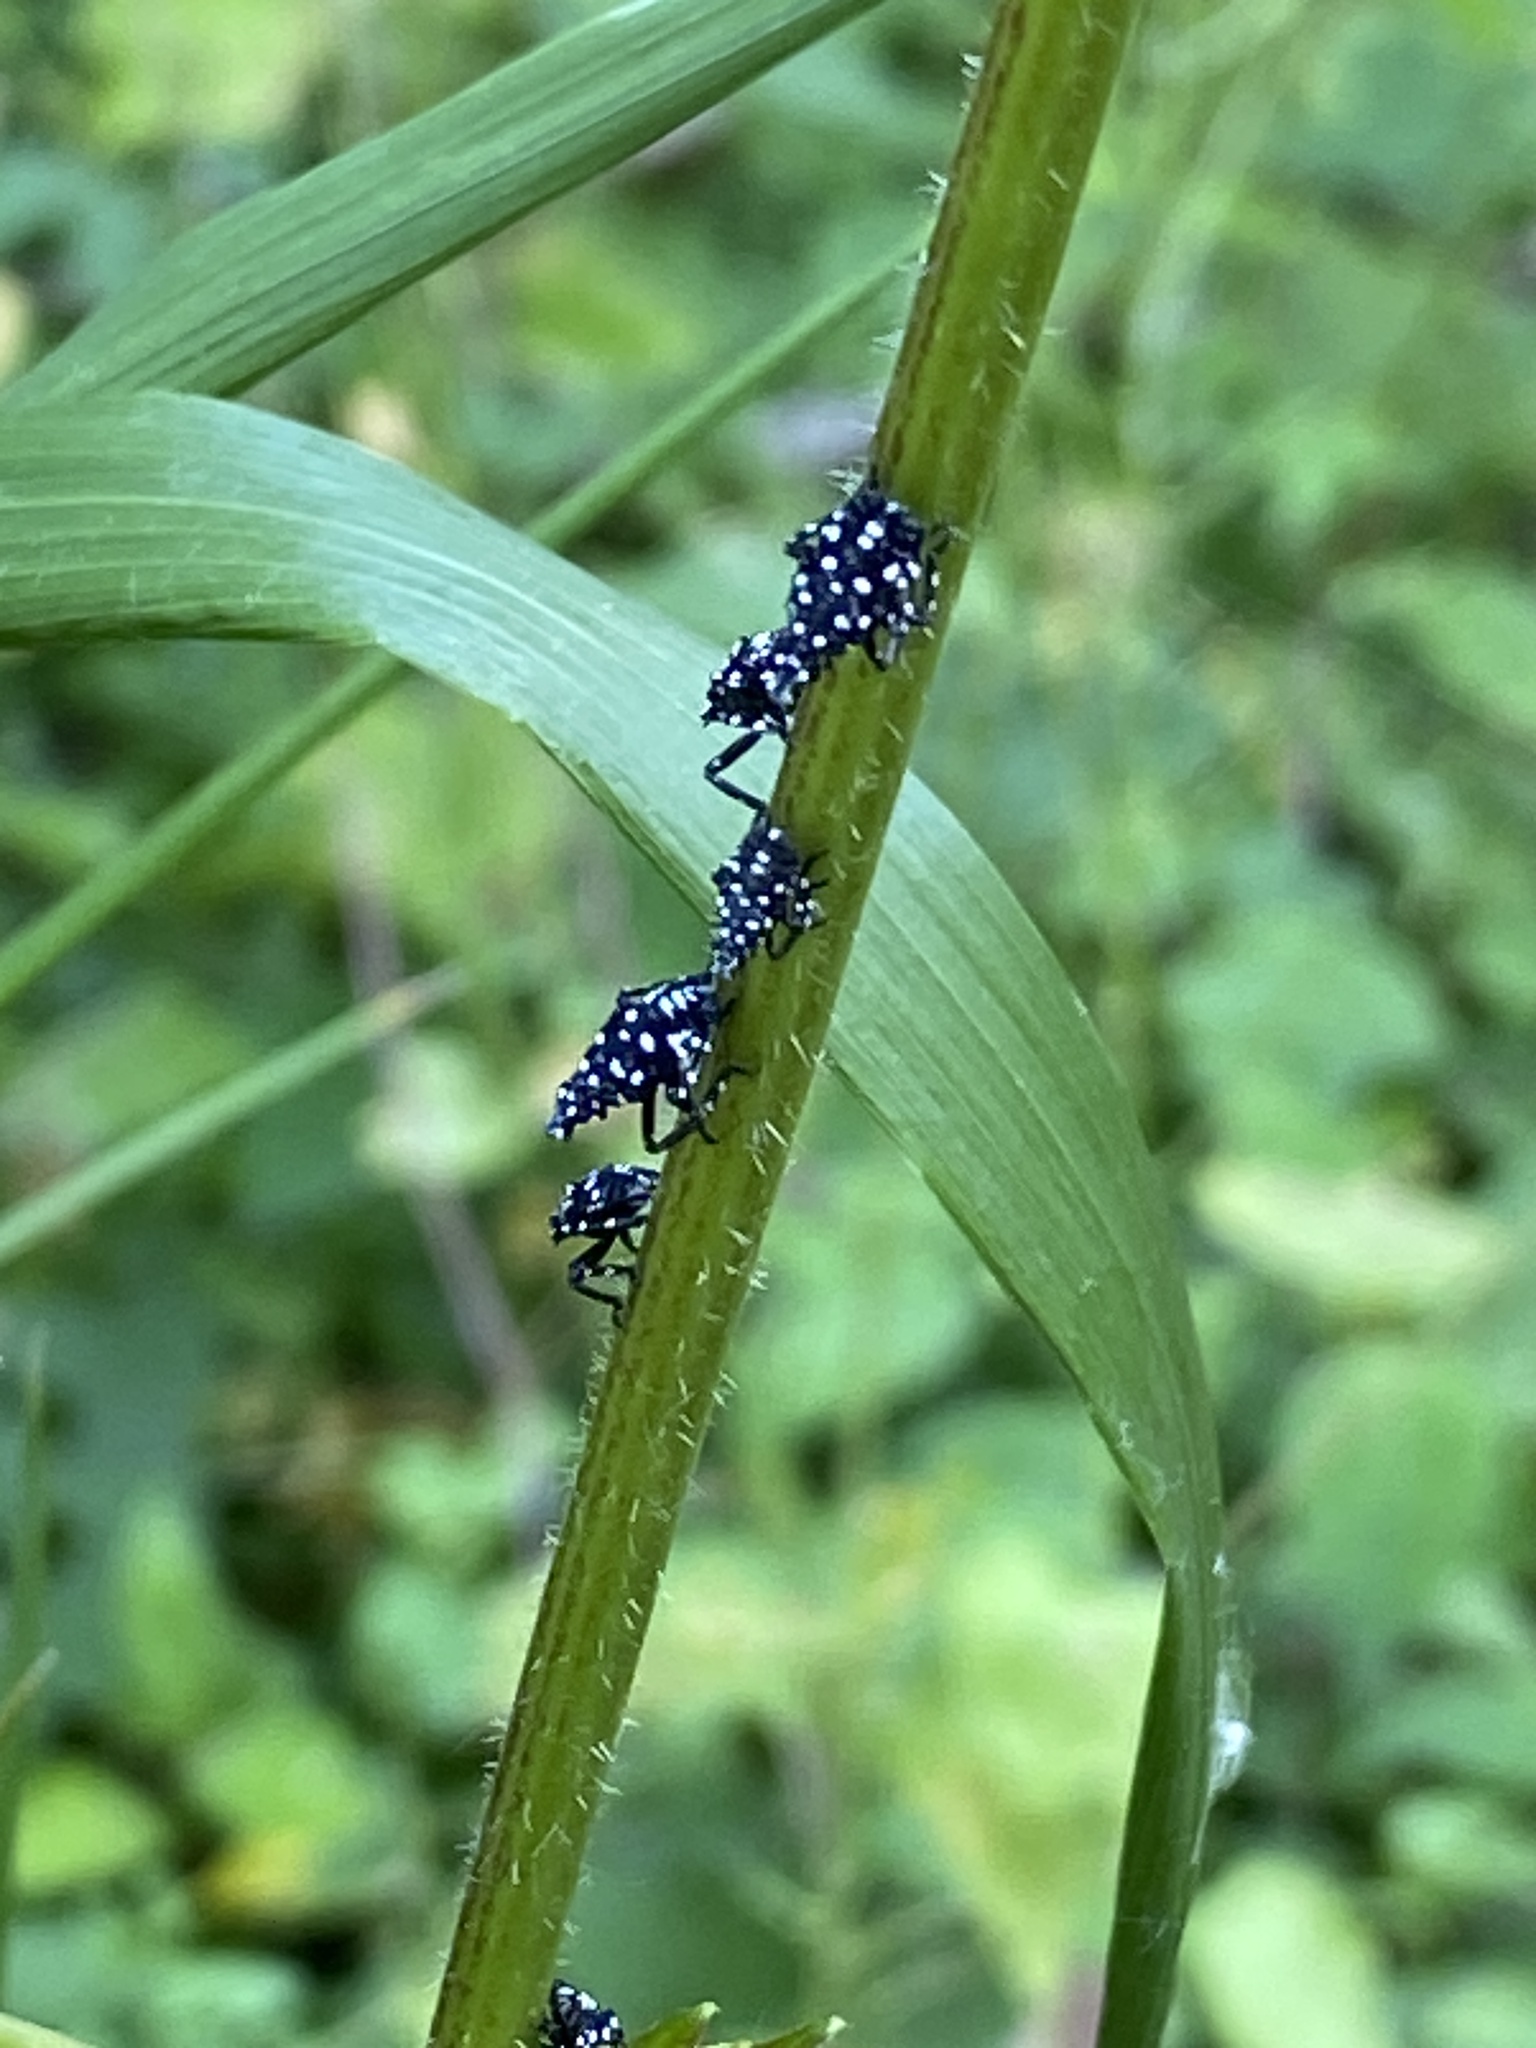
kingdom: Animalia
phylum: Arthropoda
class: Insecta
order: Hemiptera
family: Fulgoridae
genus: Lycorma
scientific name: Lycorma delicatula
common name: Spotted lanternfly
